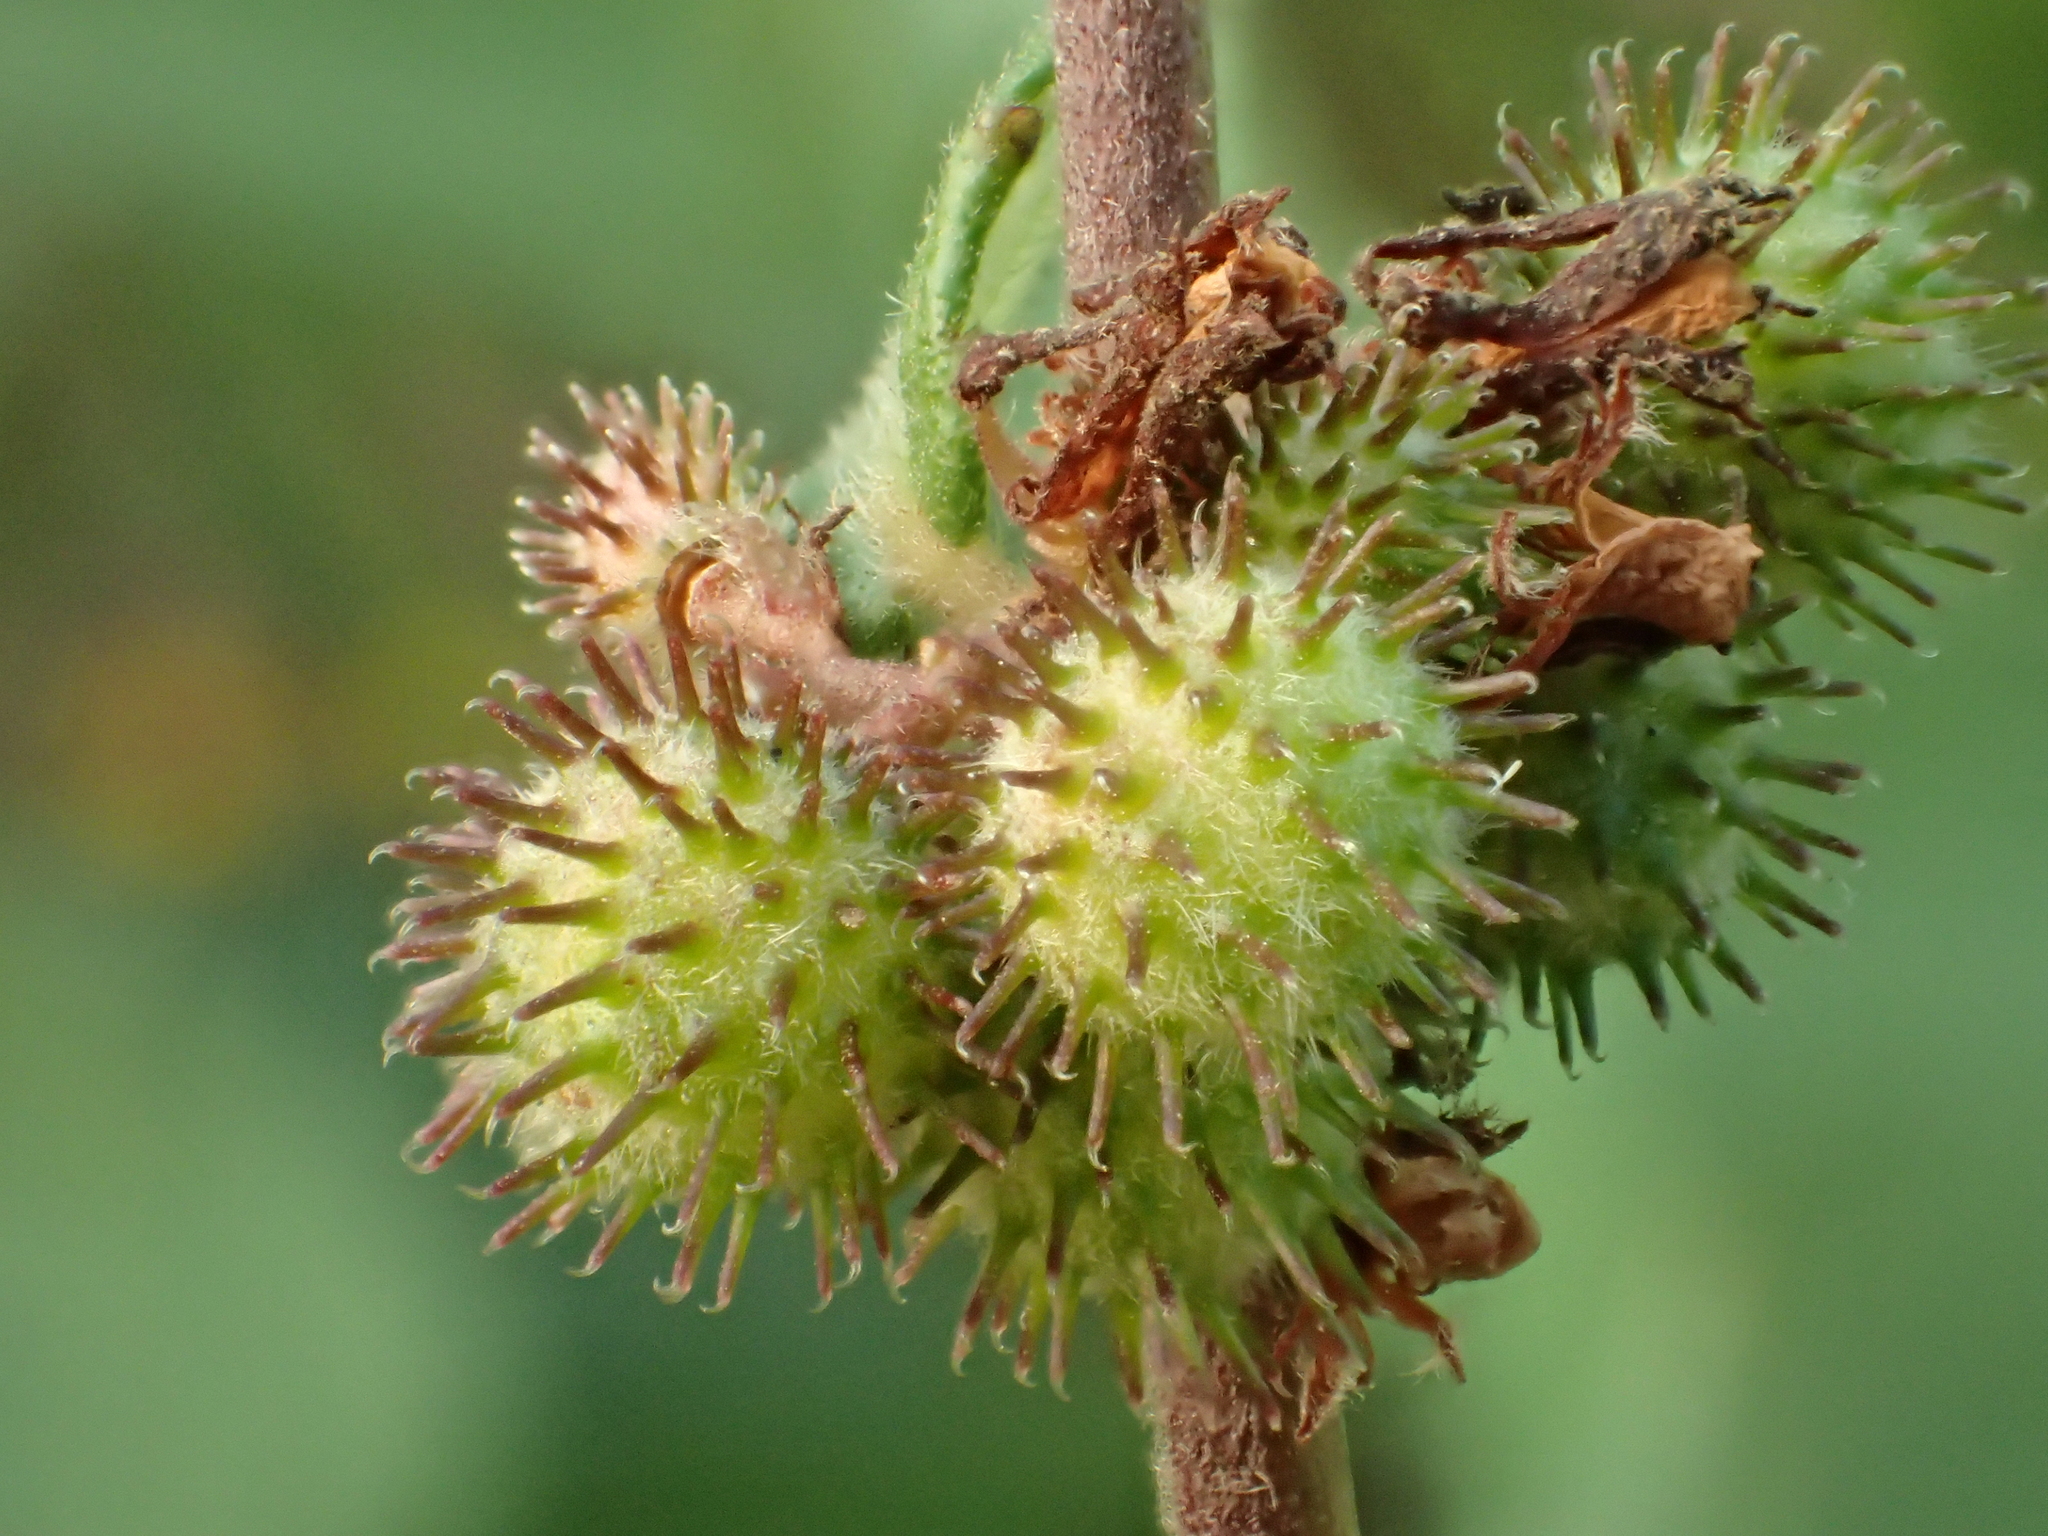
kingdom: Plantae
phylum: Tracheophyta
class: Magnoliopsida
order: Malvales
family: Malvaceae
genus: Triumfetta
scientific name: Triumfetta rhomboidea
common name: Diamond burbark
